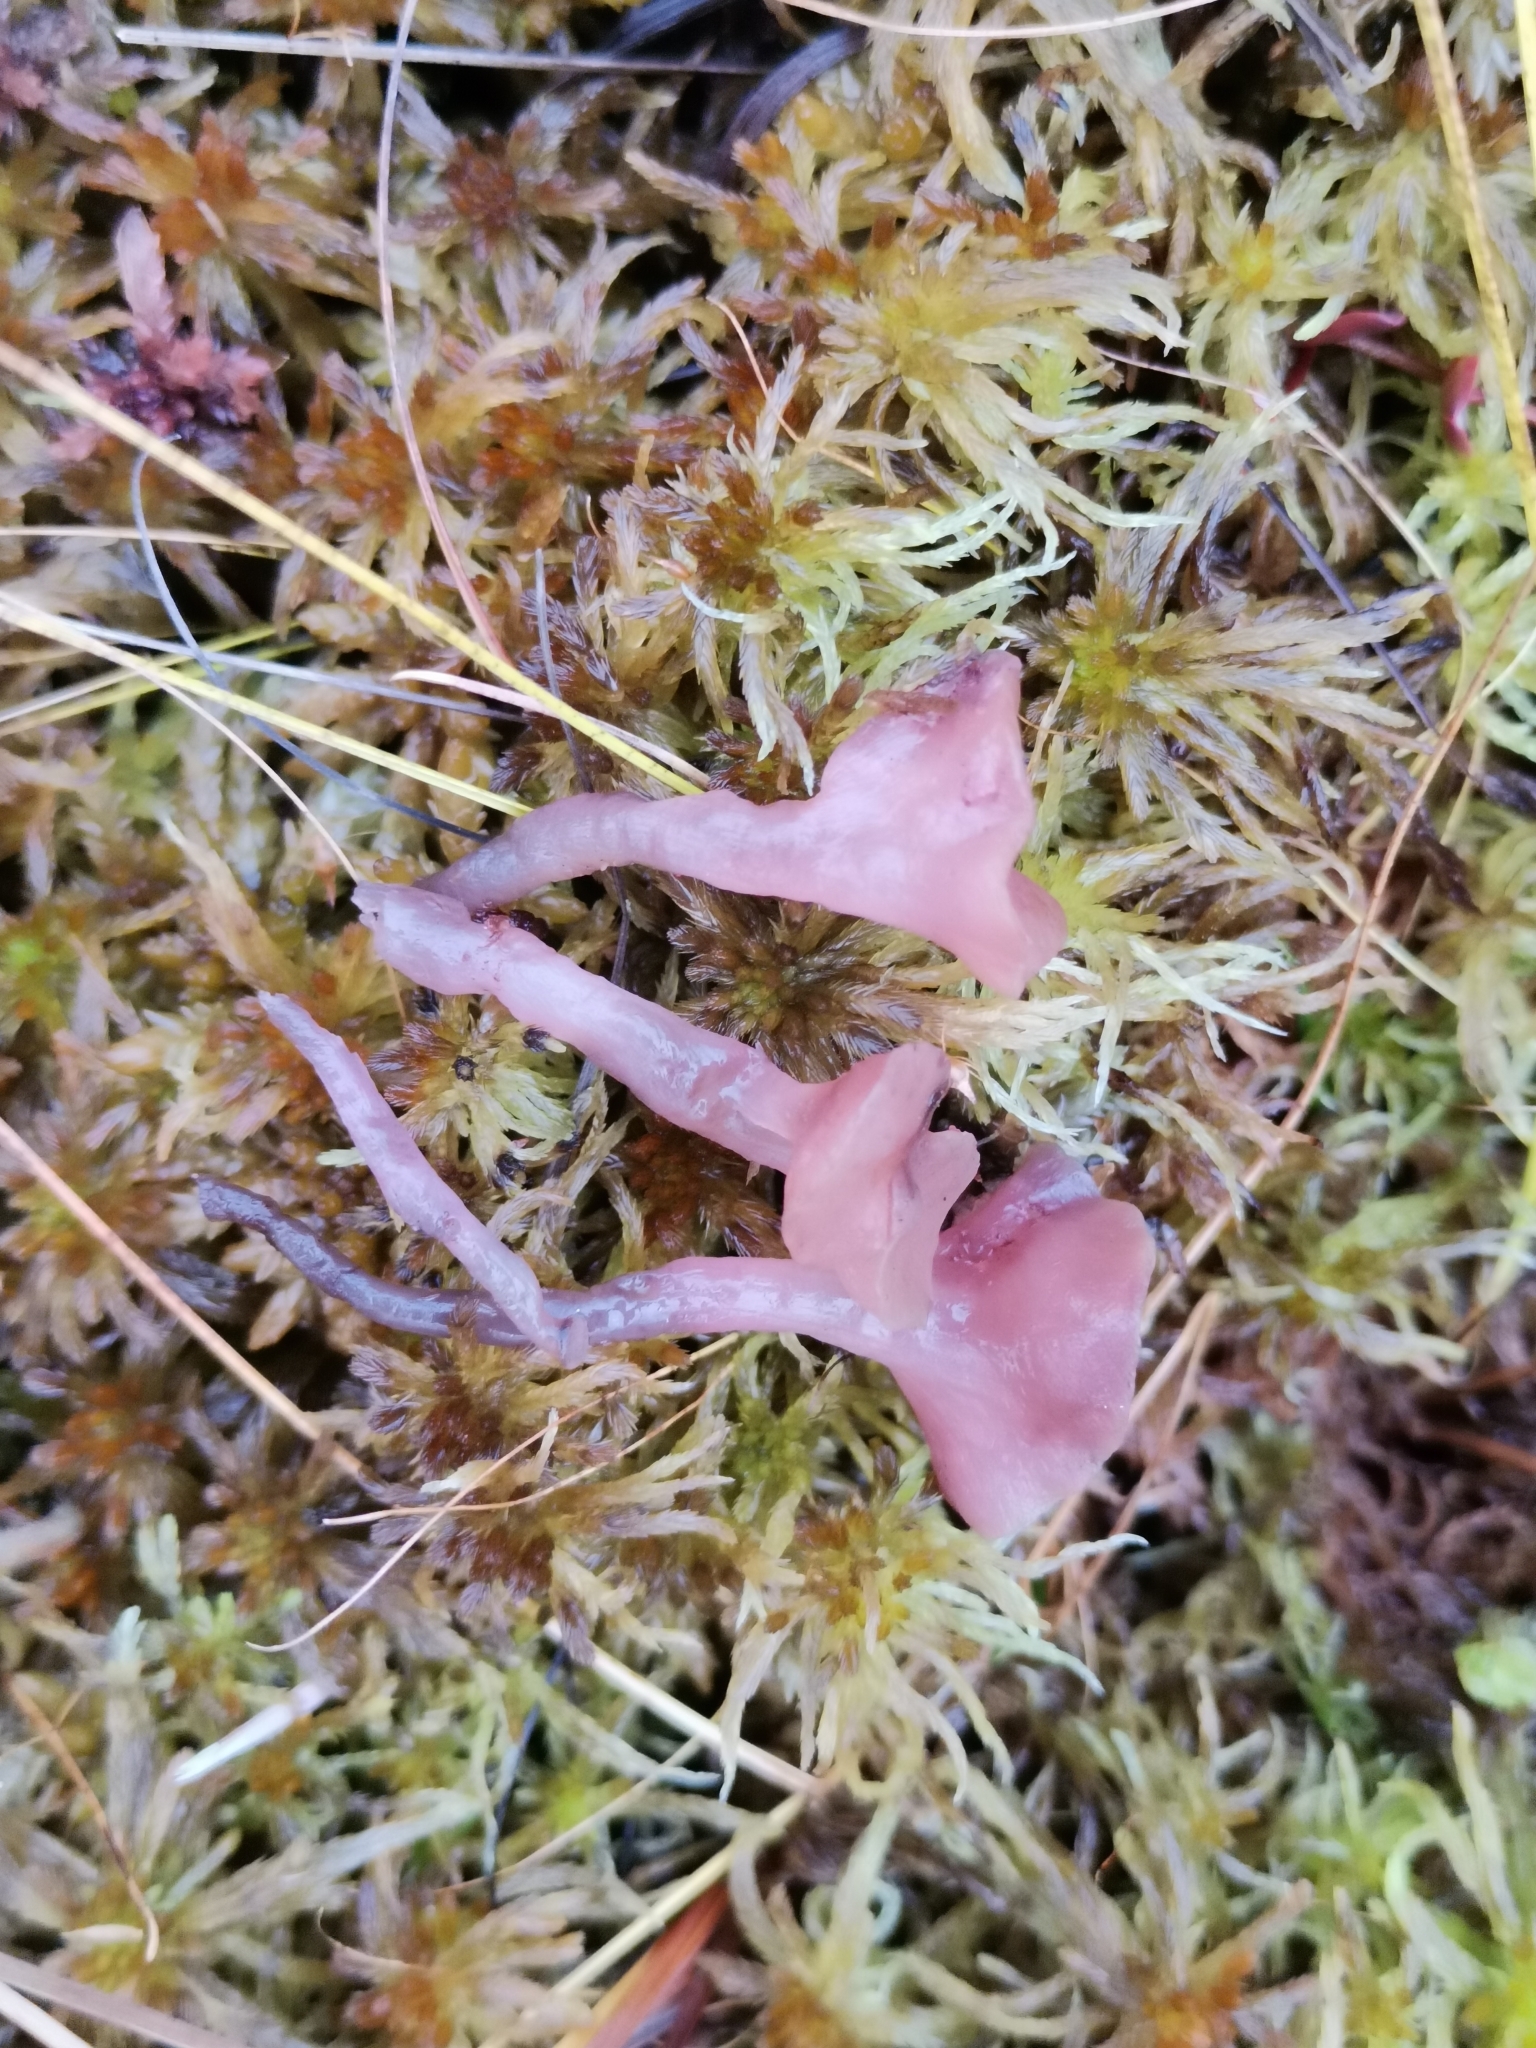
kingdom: Fungi
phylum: Ascomycota
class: Leotiomycetes
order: Helotiales
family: Gelatinodiscaceae
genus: Ascocoryne
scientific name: Ascocoryne turficola
